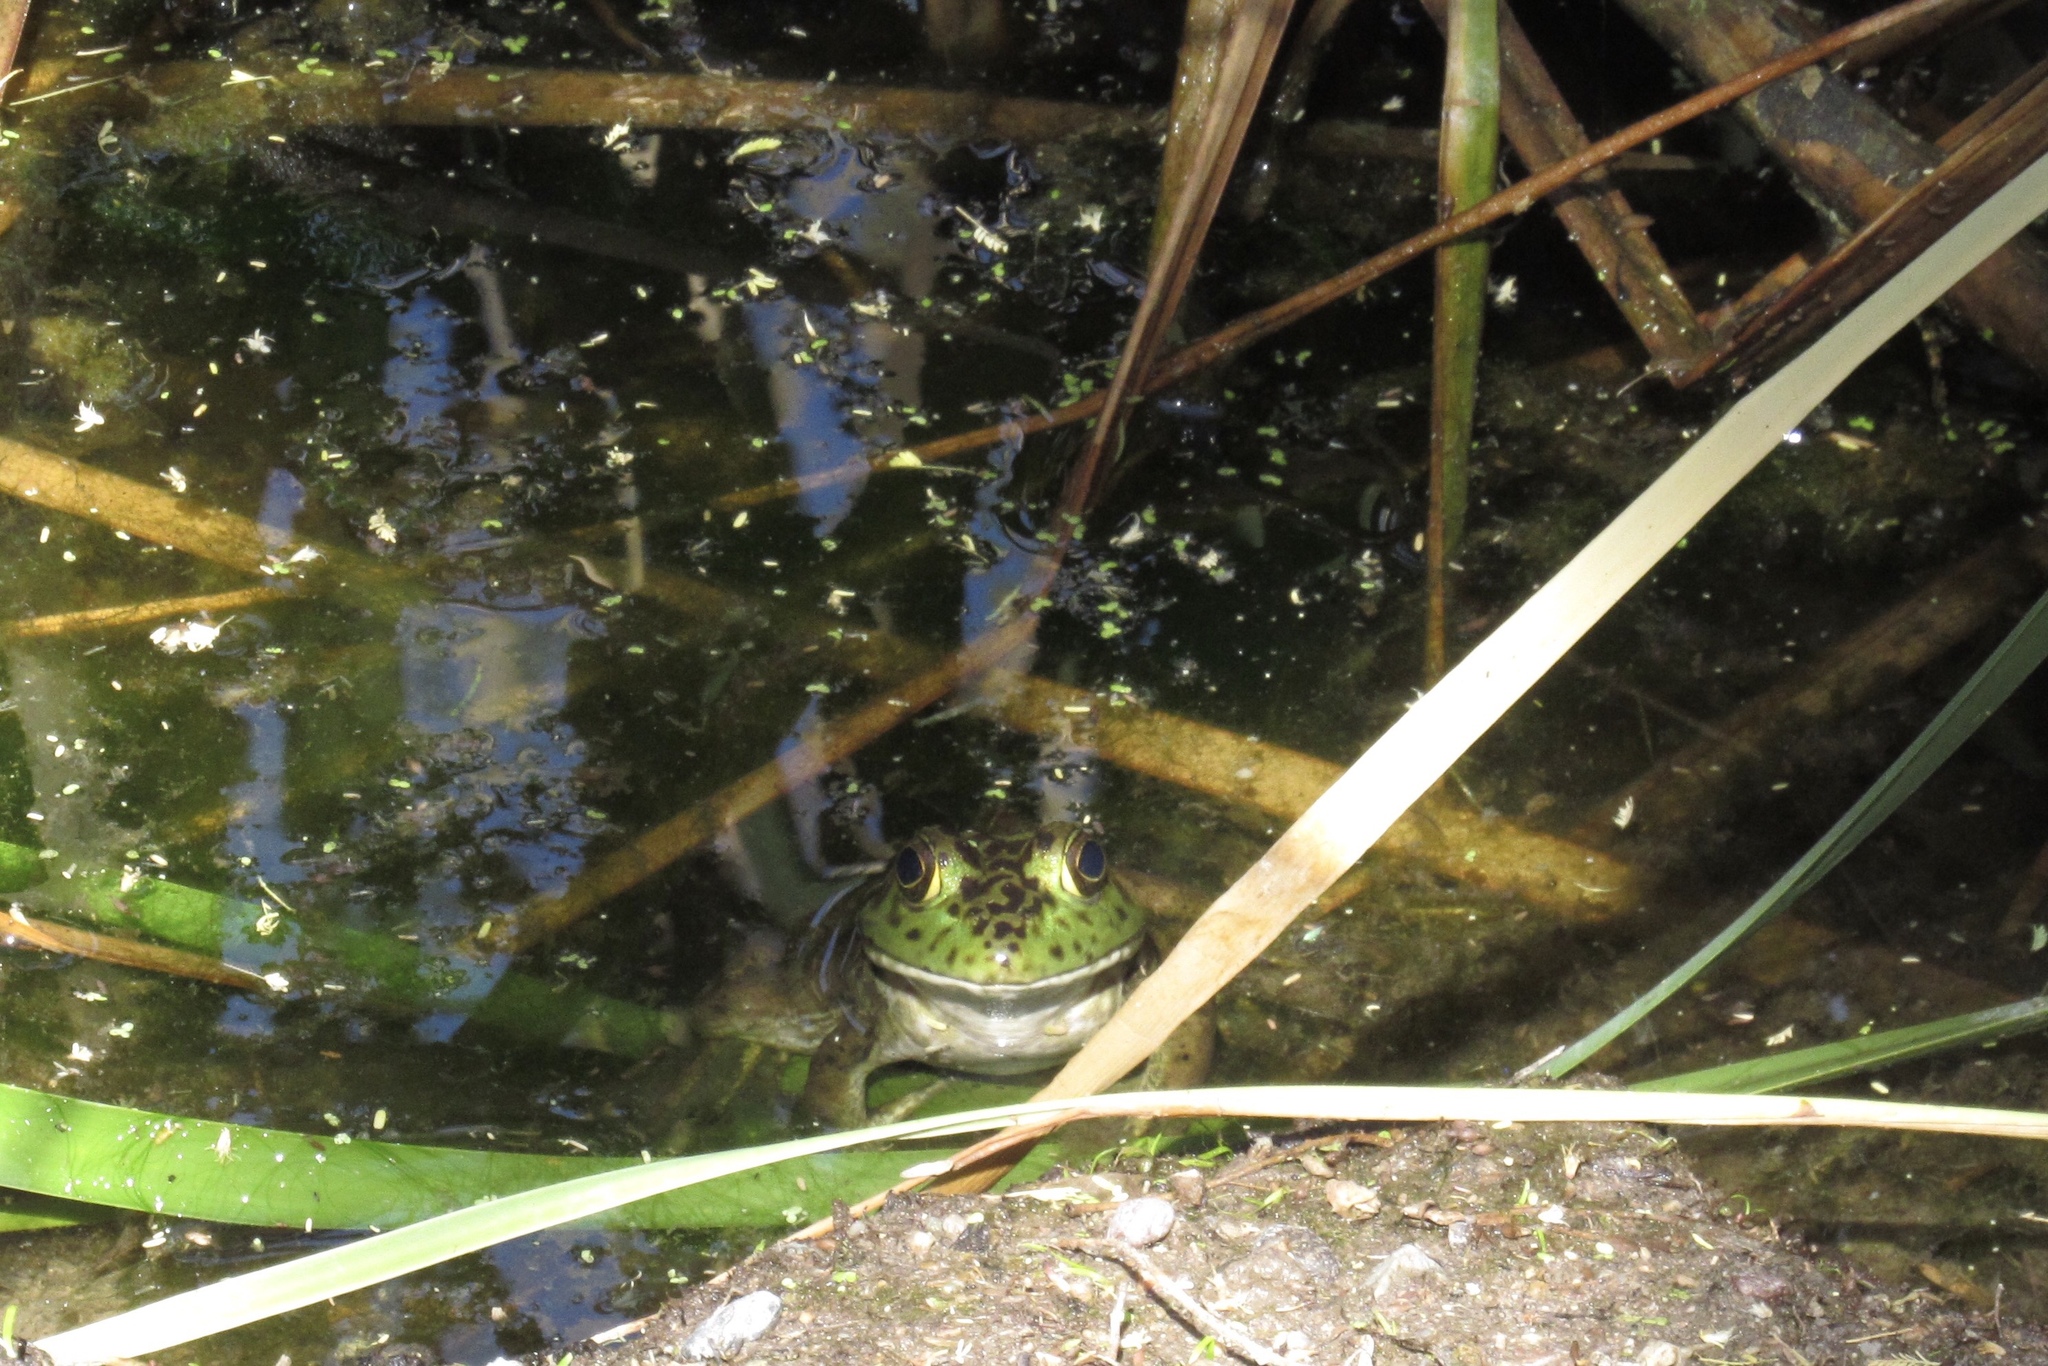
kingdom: Animalia
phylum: Chordata
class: Amphibia
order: Anura
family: Ranidae
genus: Lithobates
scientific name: Lithobates catesbeianus
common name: American bullfrog
